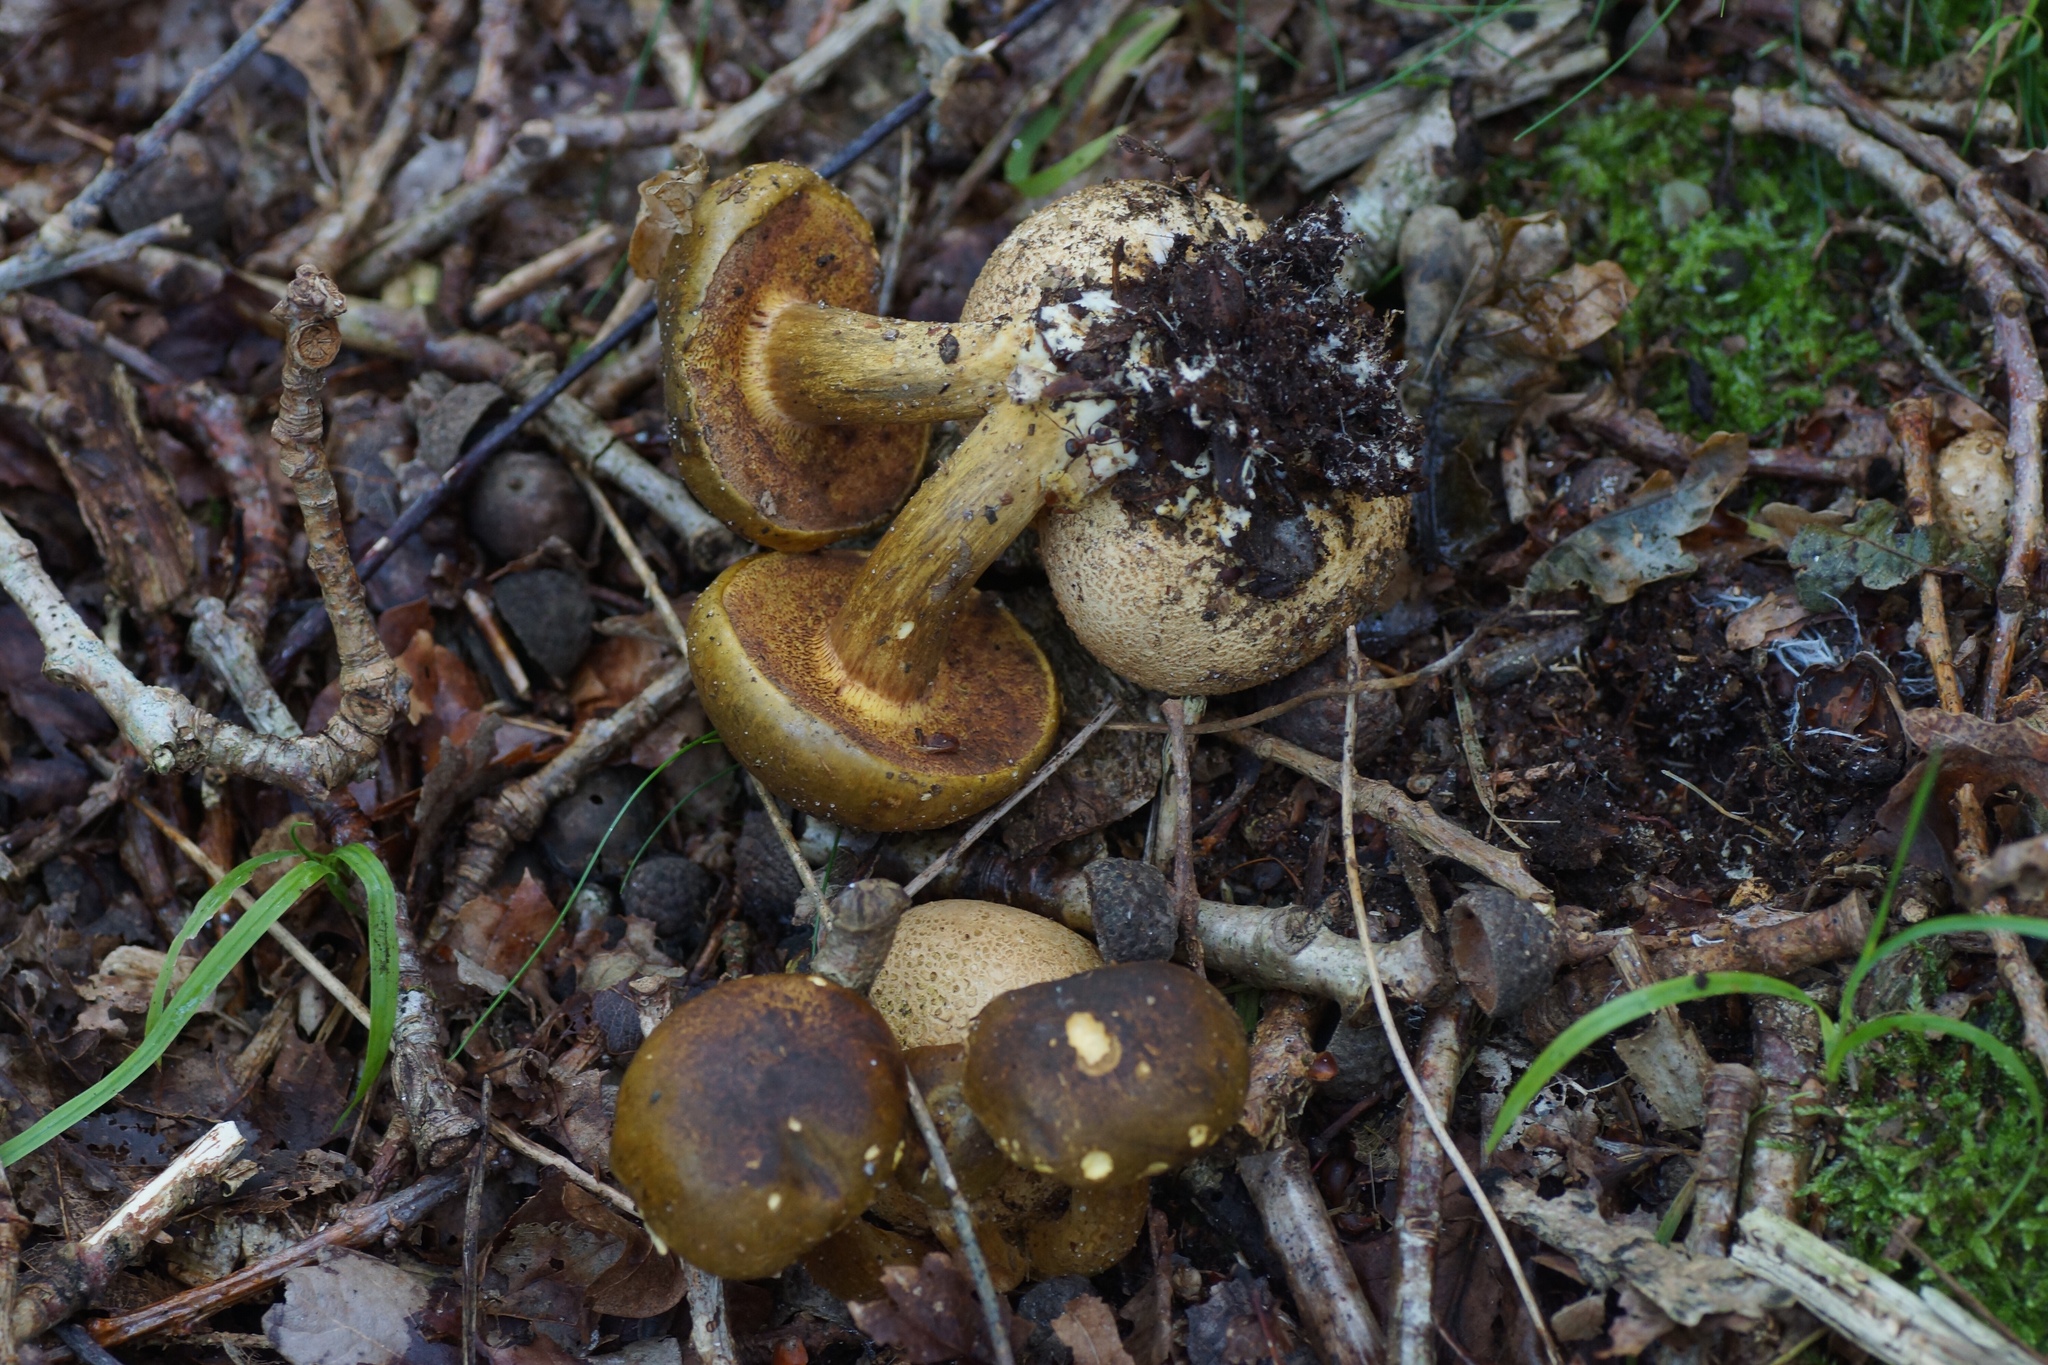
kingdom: Fungi
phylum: Basidiomycota
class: Agaricomycetes
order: Boletales
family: Boletaceae
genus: Pseudoboletus
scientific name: Pseudoboletus parasiticus
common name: Parasitic bolete
